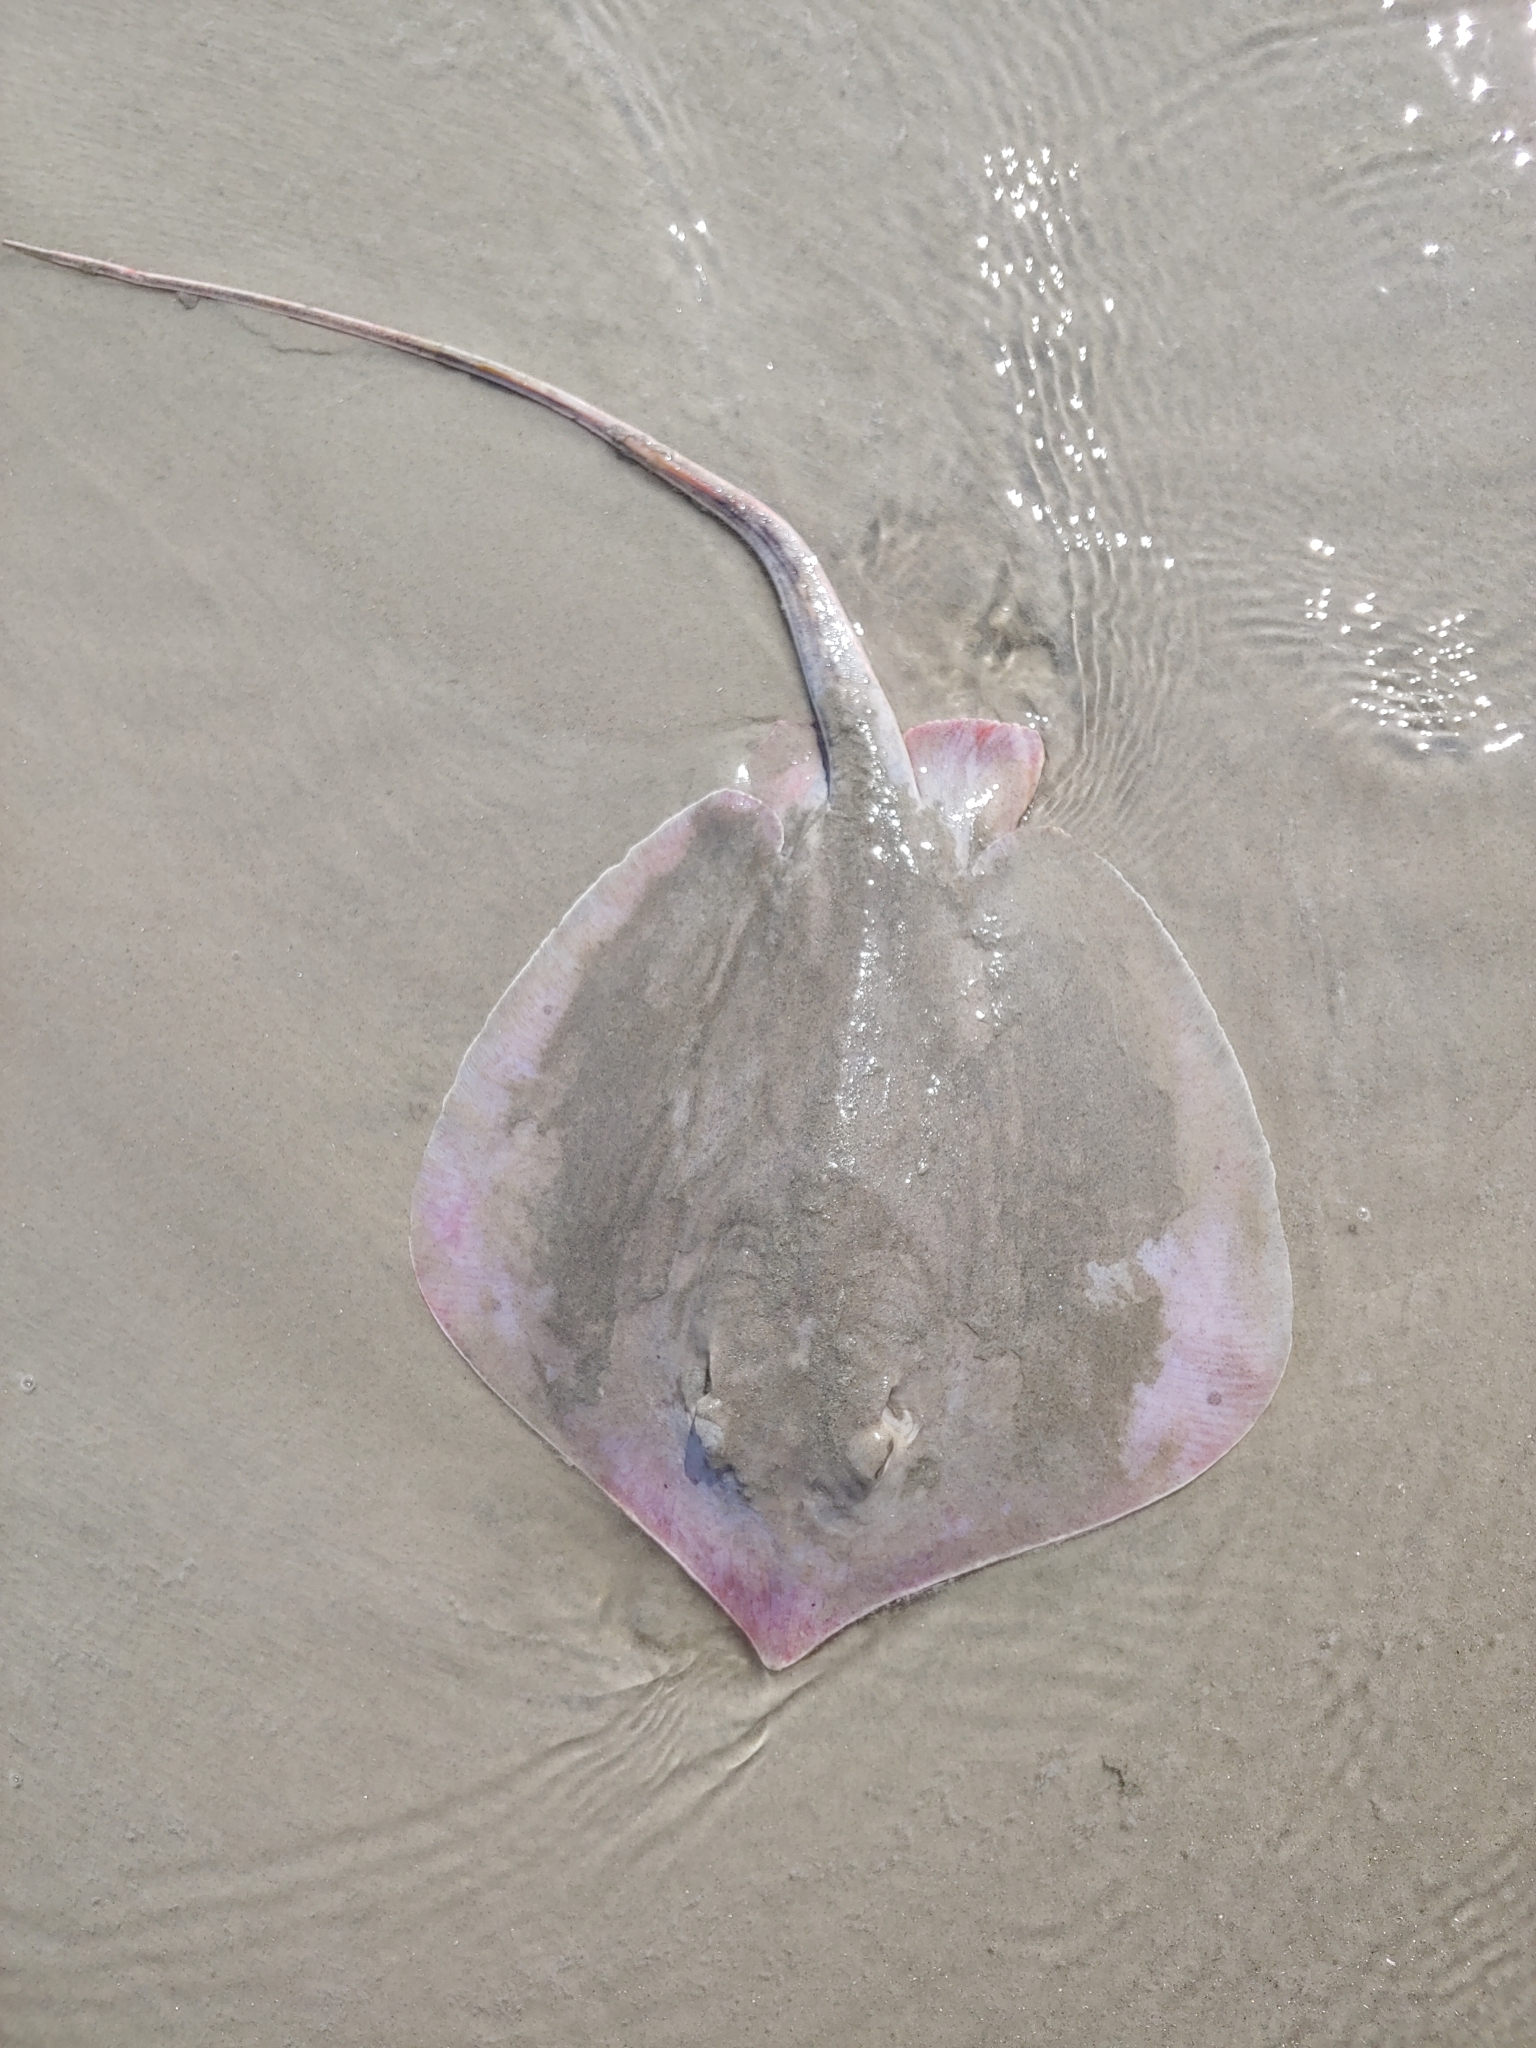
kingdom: Animalia
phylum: Chordata
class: Elasmobranchii
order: Myliobatiformes
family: Dasyatidae
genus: Hypanus
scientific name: Hypanus sabinus
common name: Atlantic stingray
